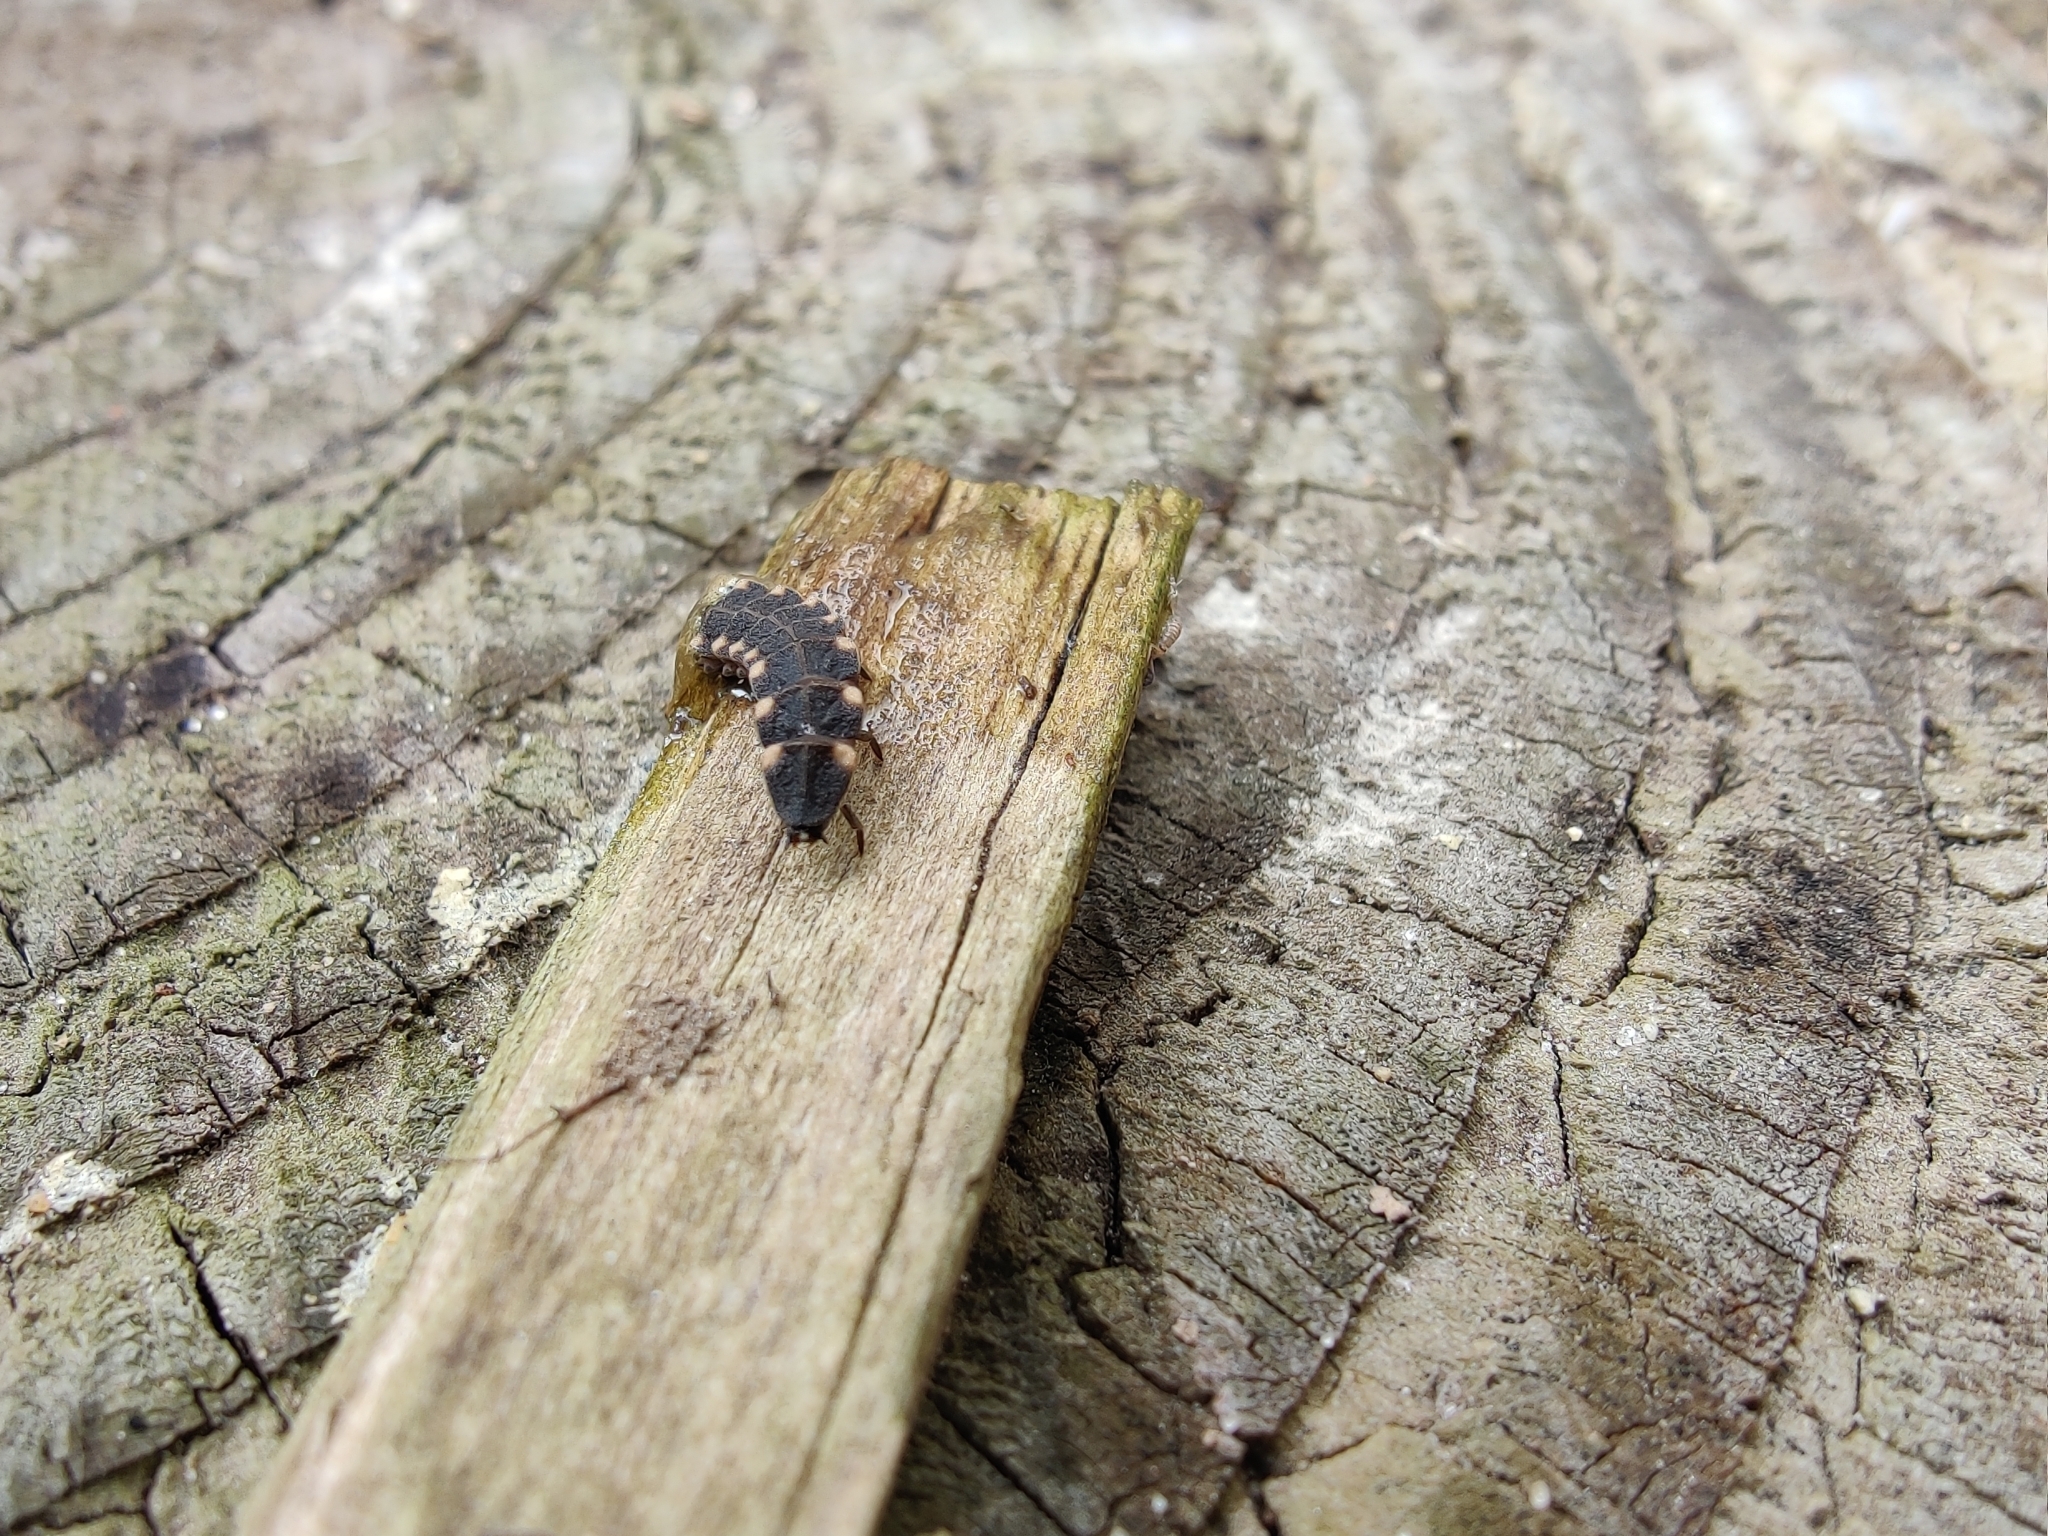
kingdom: Animalia
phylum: Arthropoda
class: Insecta
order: Coleoptera
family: Lampyridae
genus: Lampyris
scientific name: Lampyris noctiluca
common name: Glow-worm
